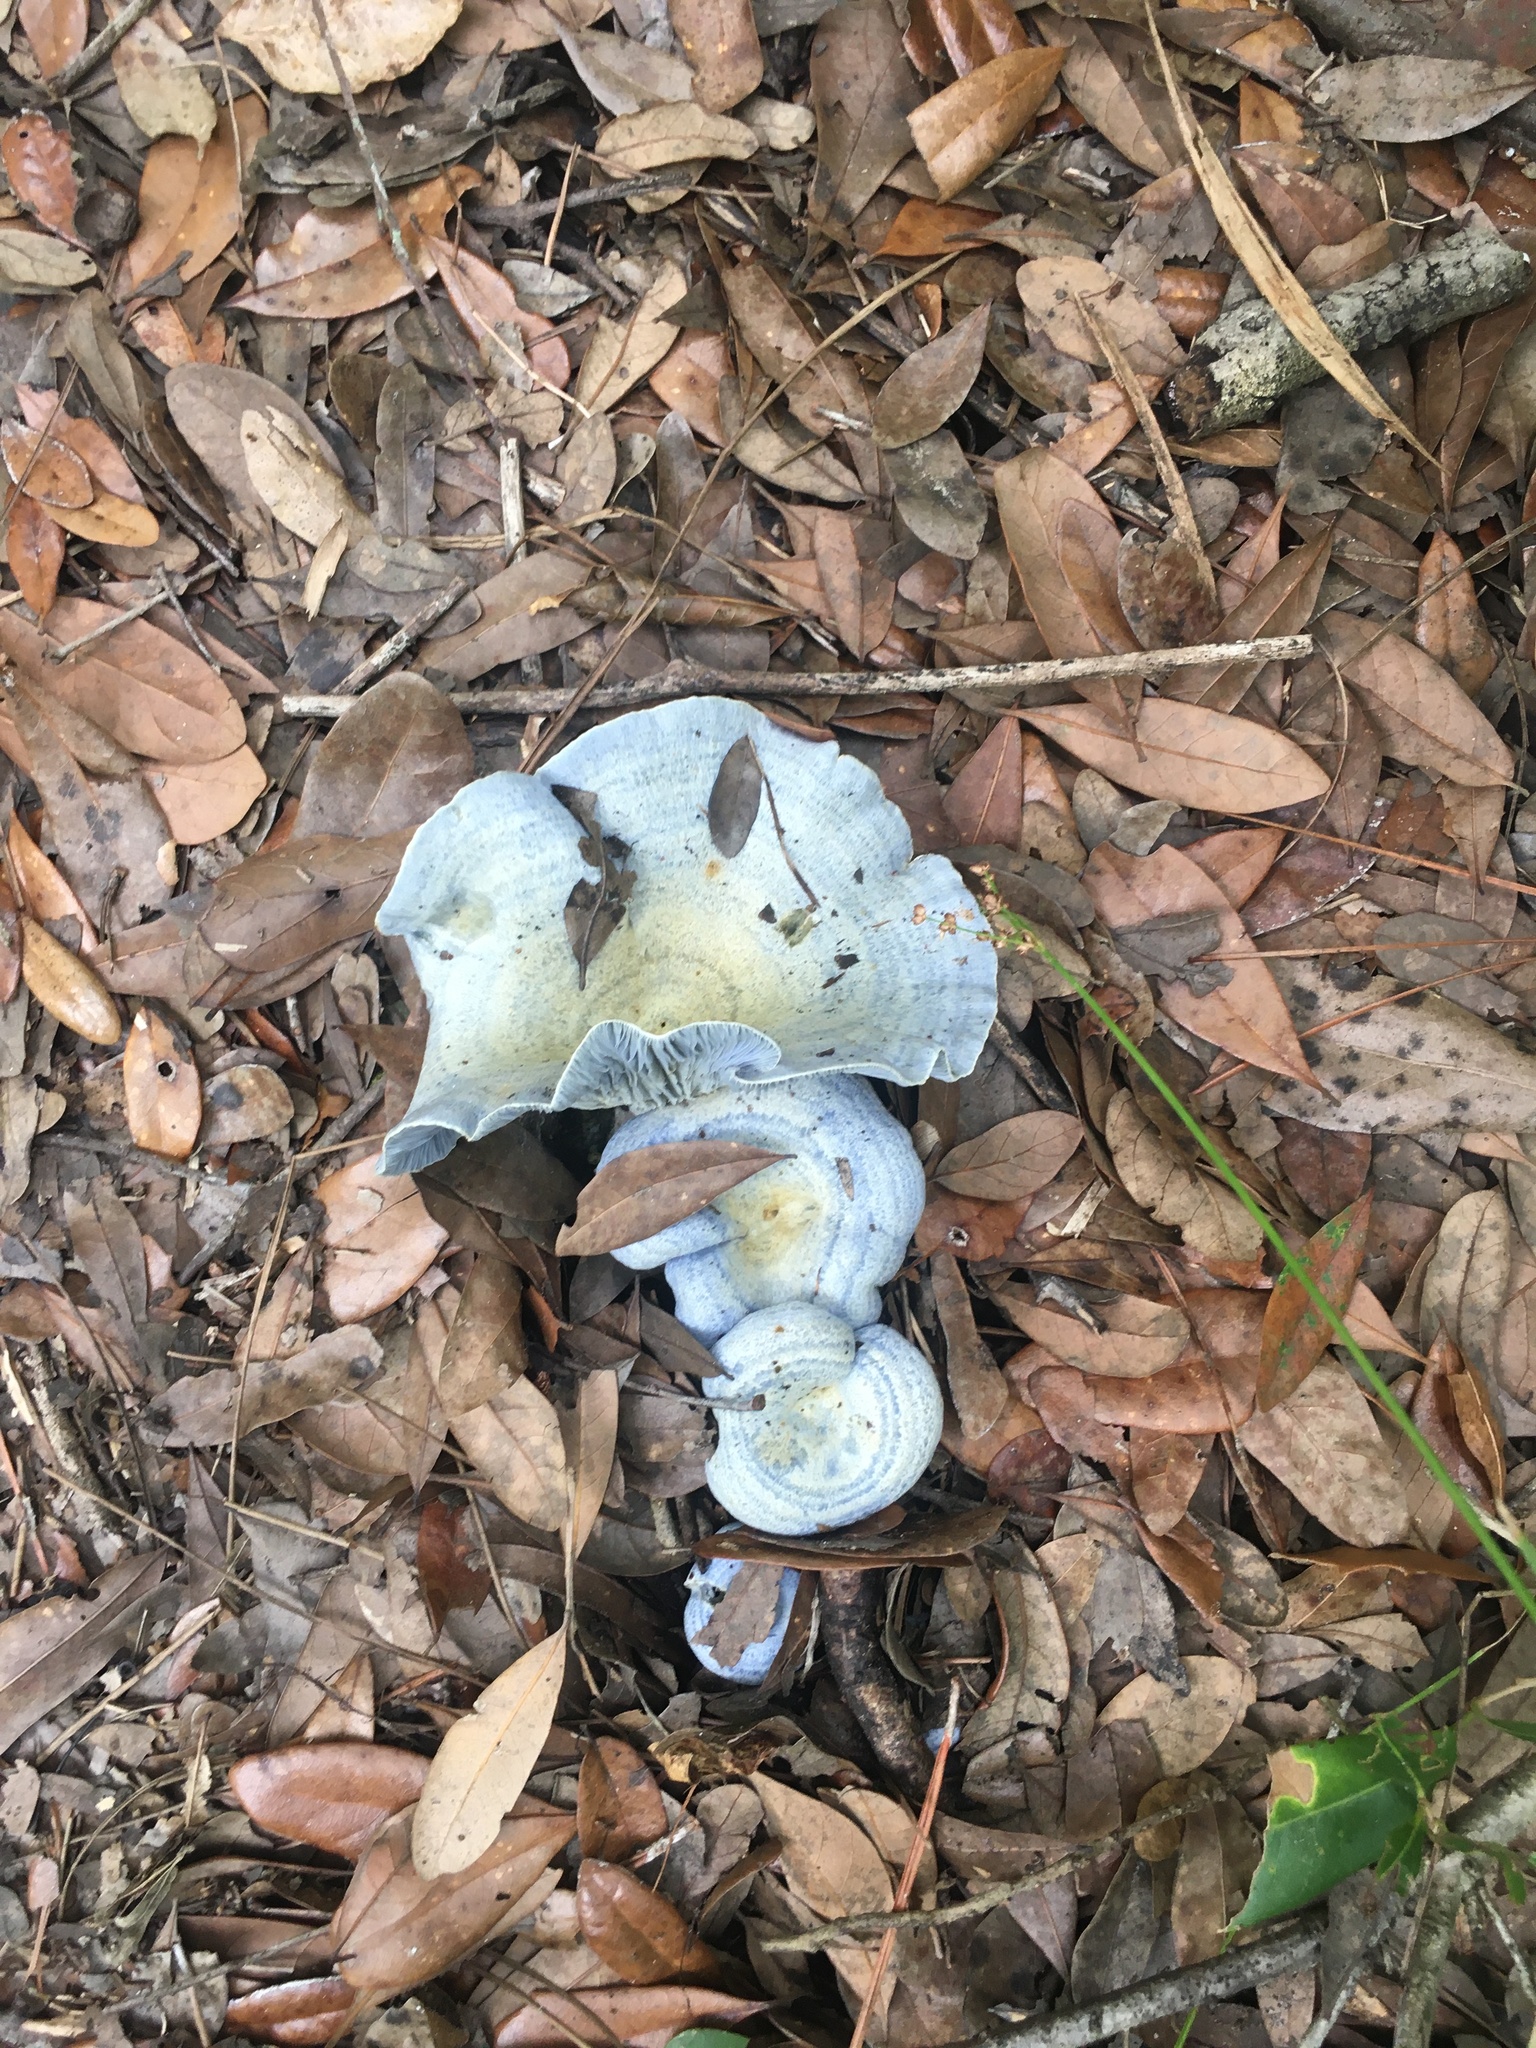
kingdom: Fungi
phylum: Basidiomycota
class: Agaricomycetes
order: Russulales
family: Russulaceae
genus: Lactarius
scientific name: Lactarius indigo
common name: Indigo milk cap
